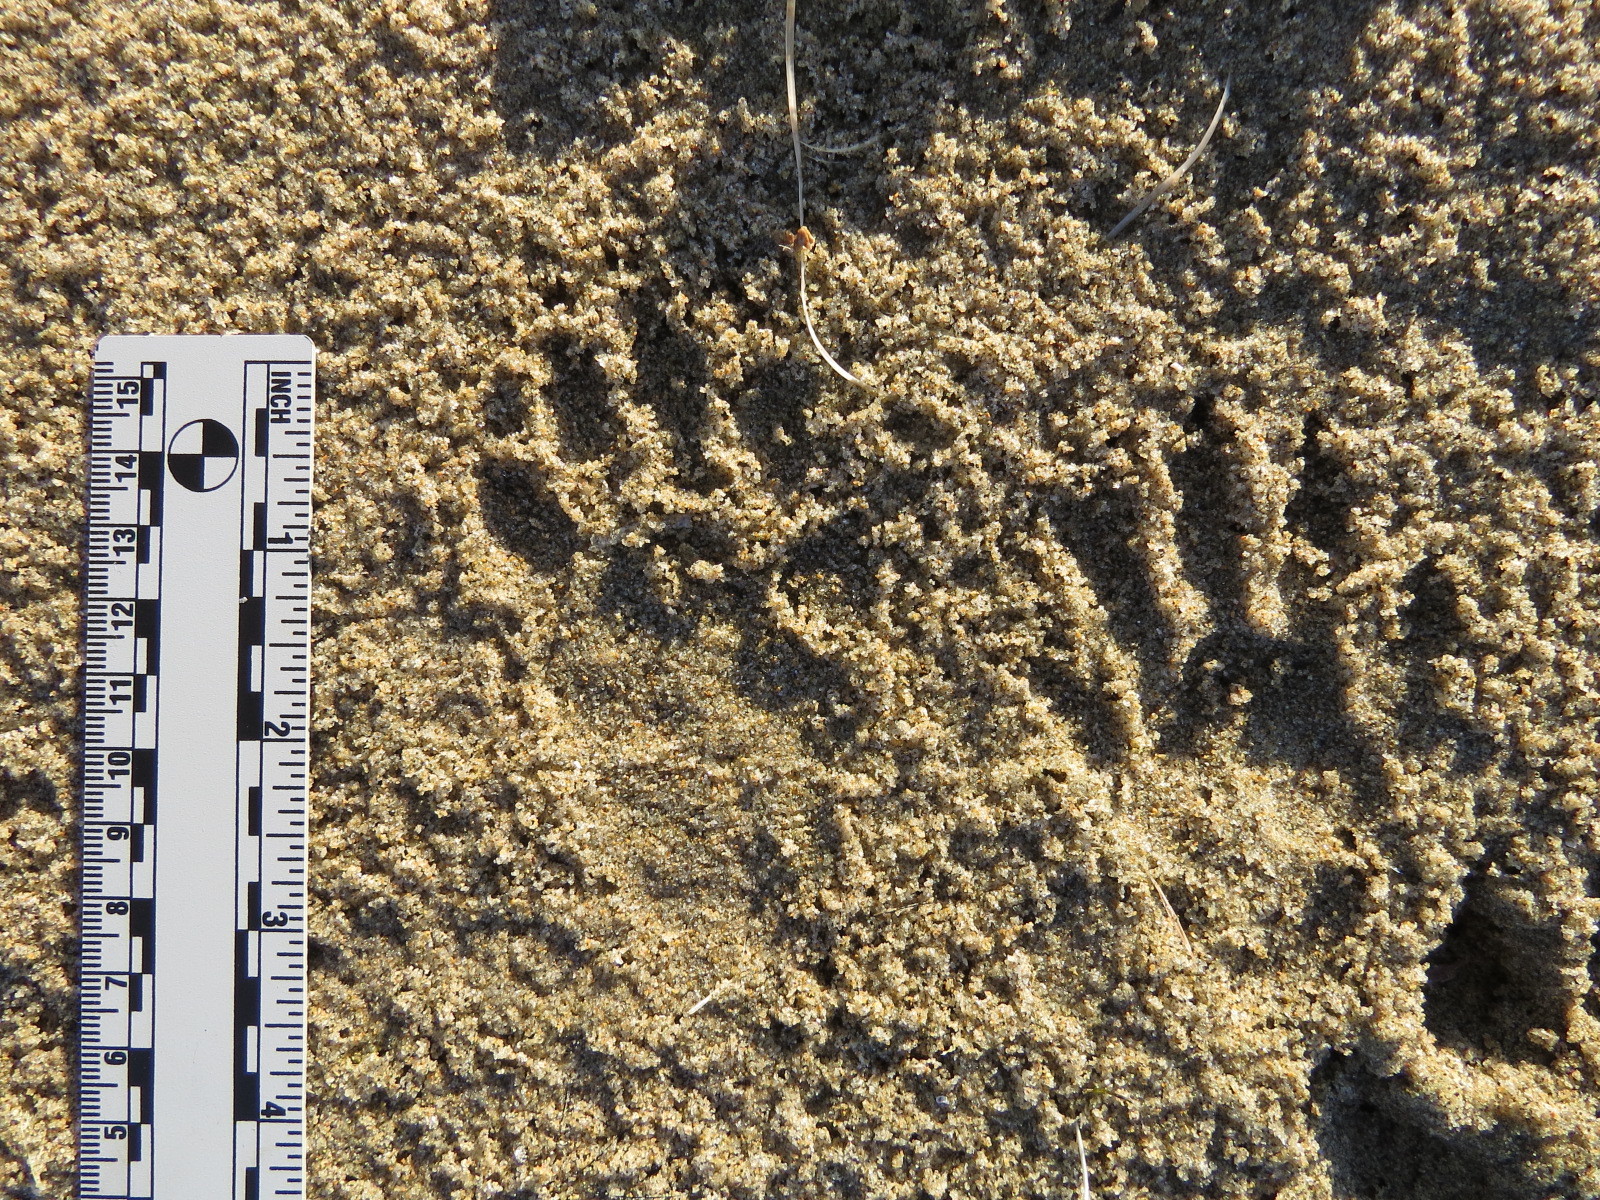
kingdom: Animalia
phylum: Chordata
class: Mammalia
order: Carnivora
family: Procyonidae
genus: Procyon
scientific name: Procyon lotor
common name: Raccoon
